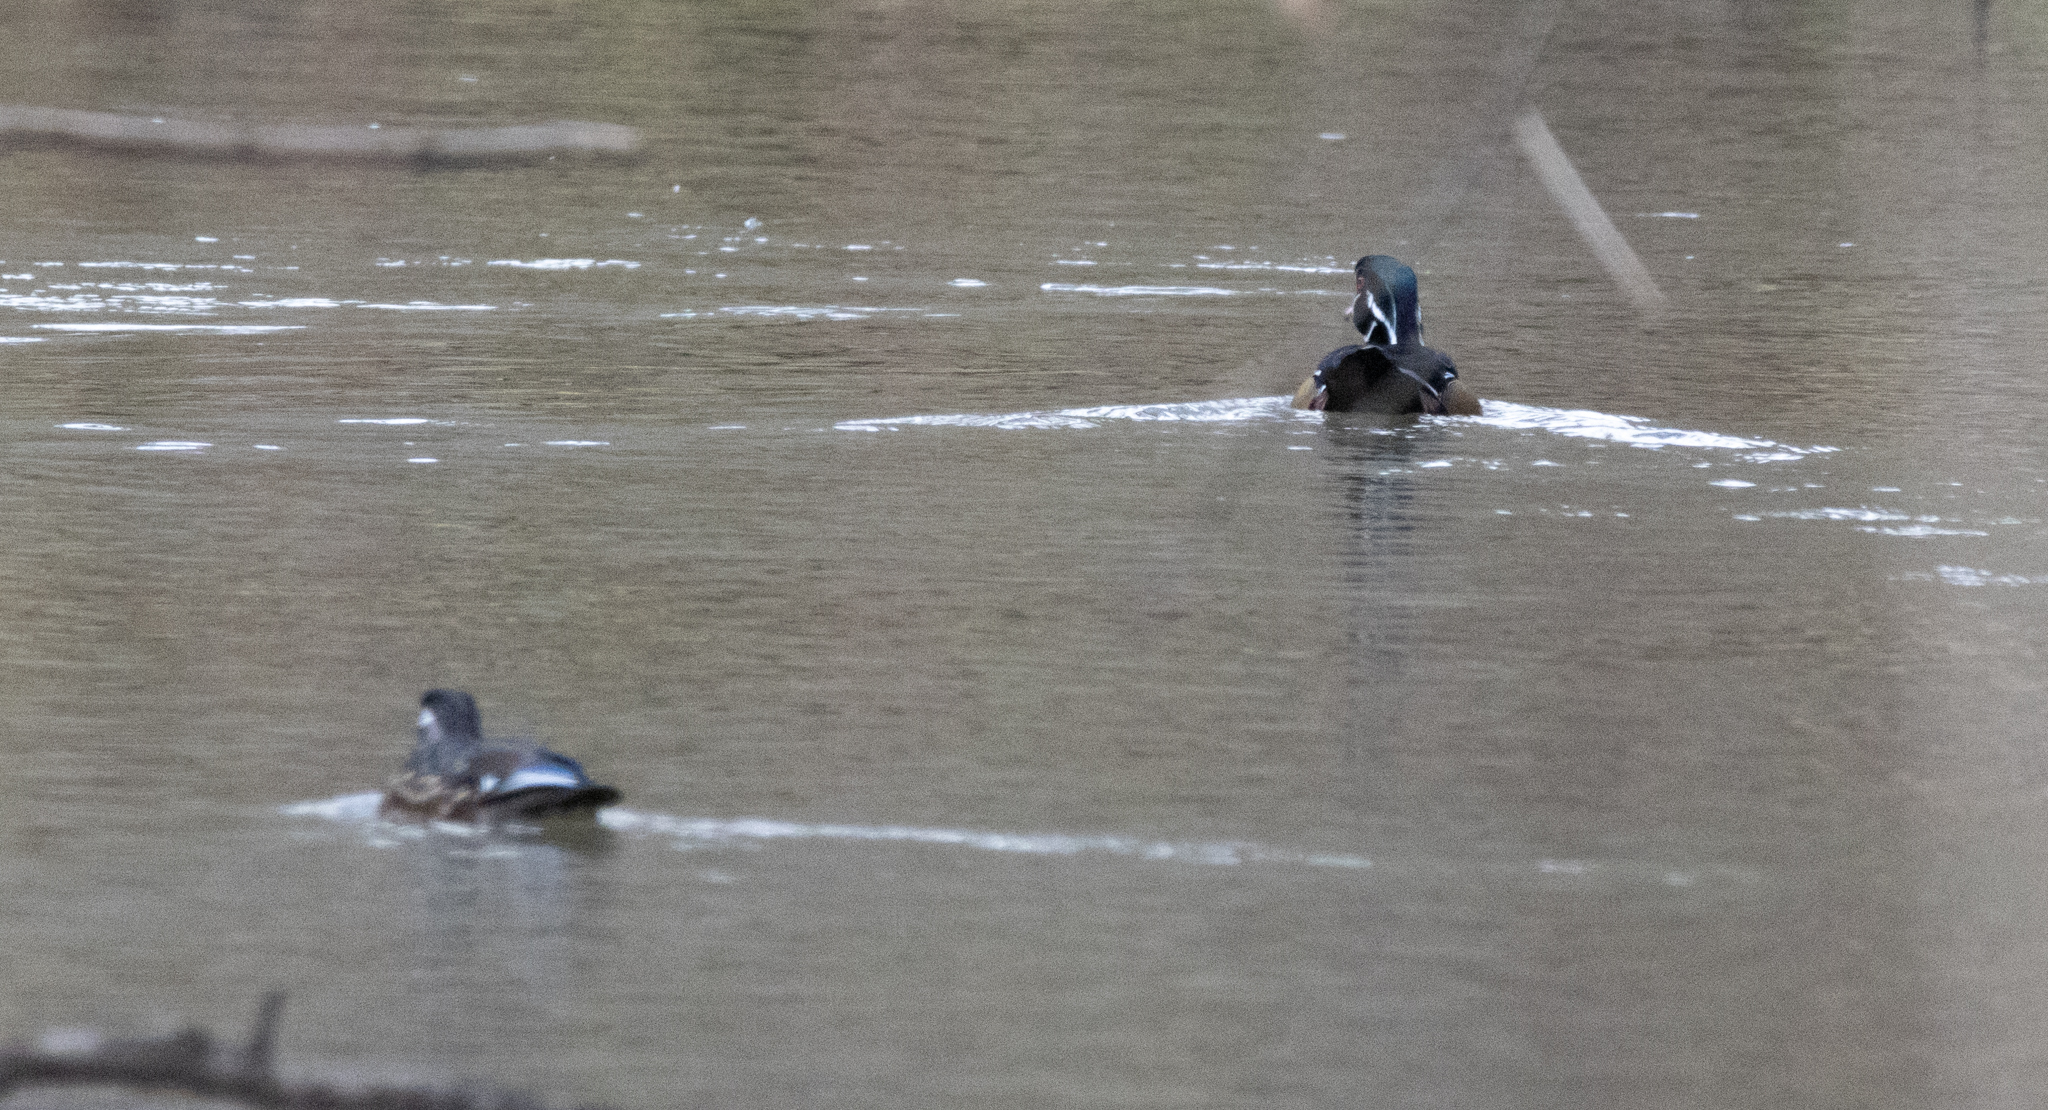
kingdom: Animalia
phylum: Chordata
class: Aves
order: Anseriformes
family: Anatidae
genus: Aix
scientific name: Aix sponsa
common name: Wood duck
